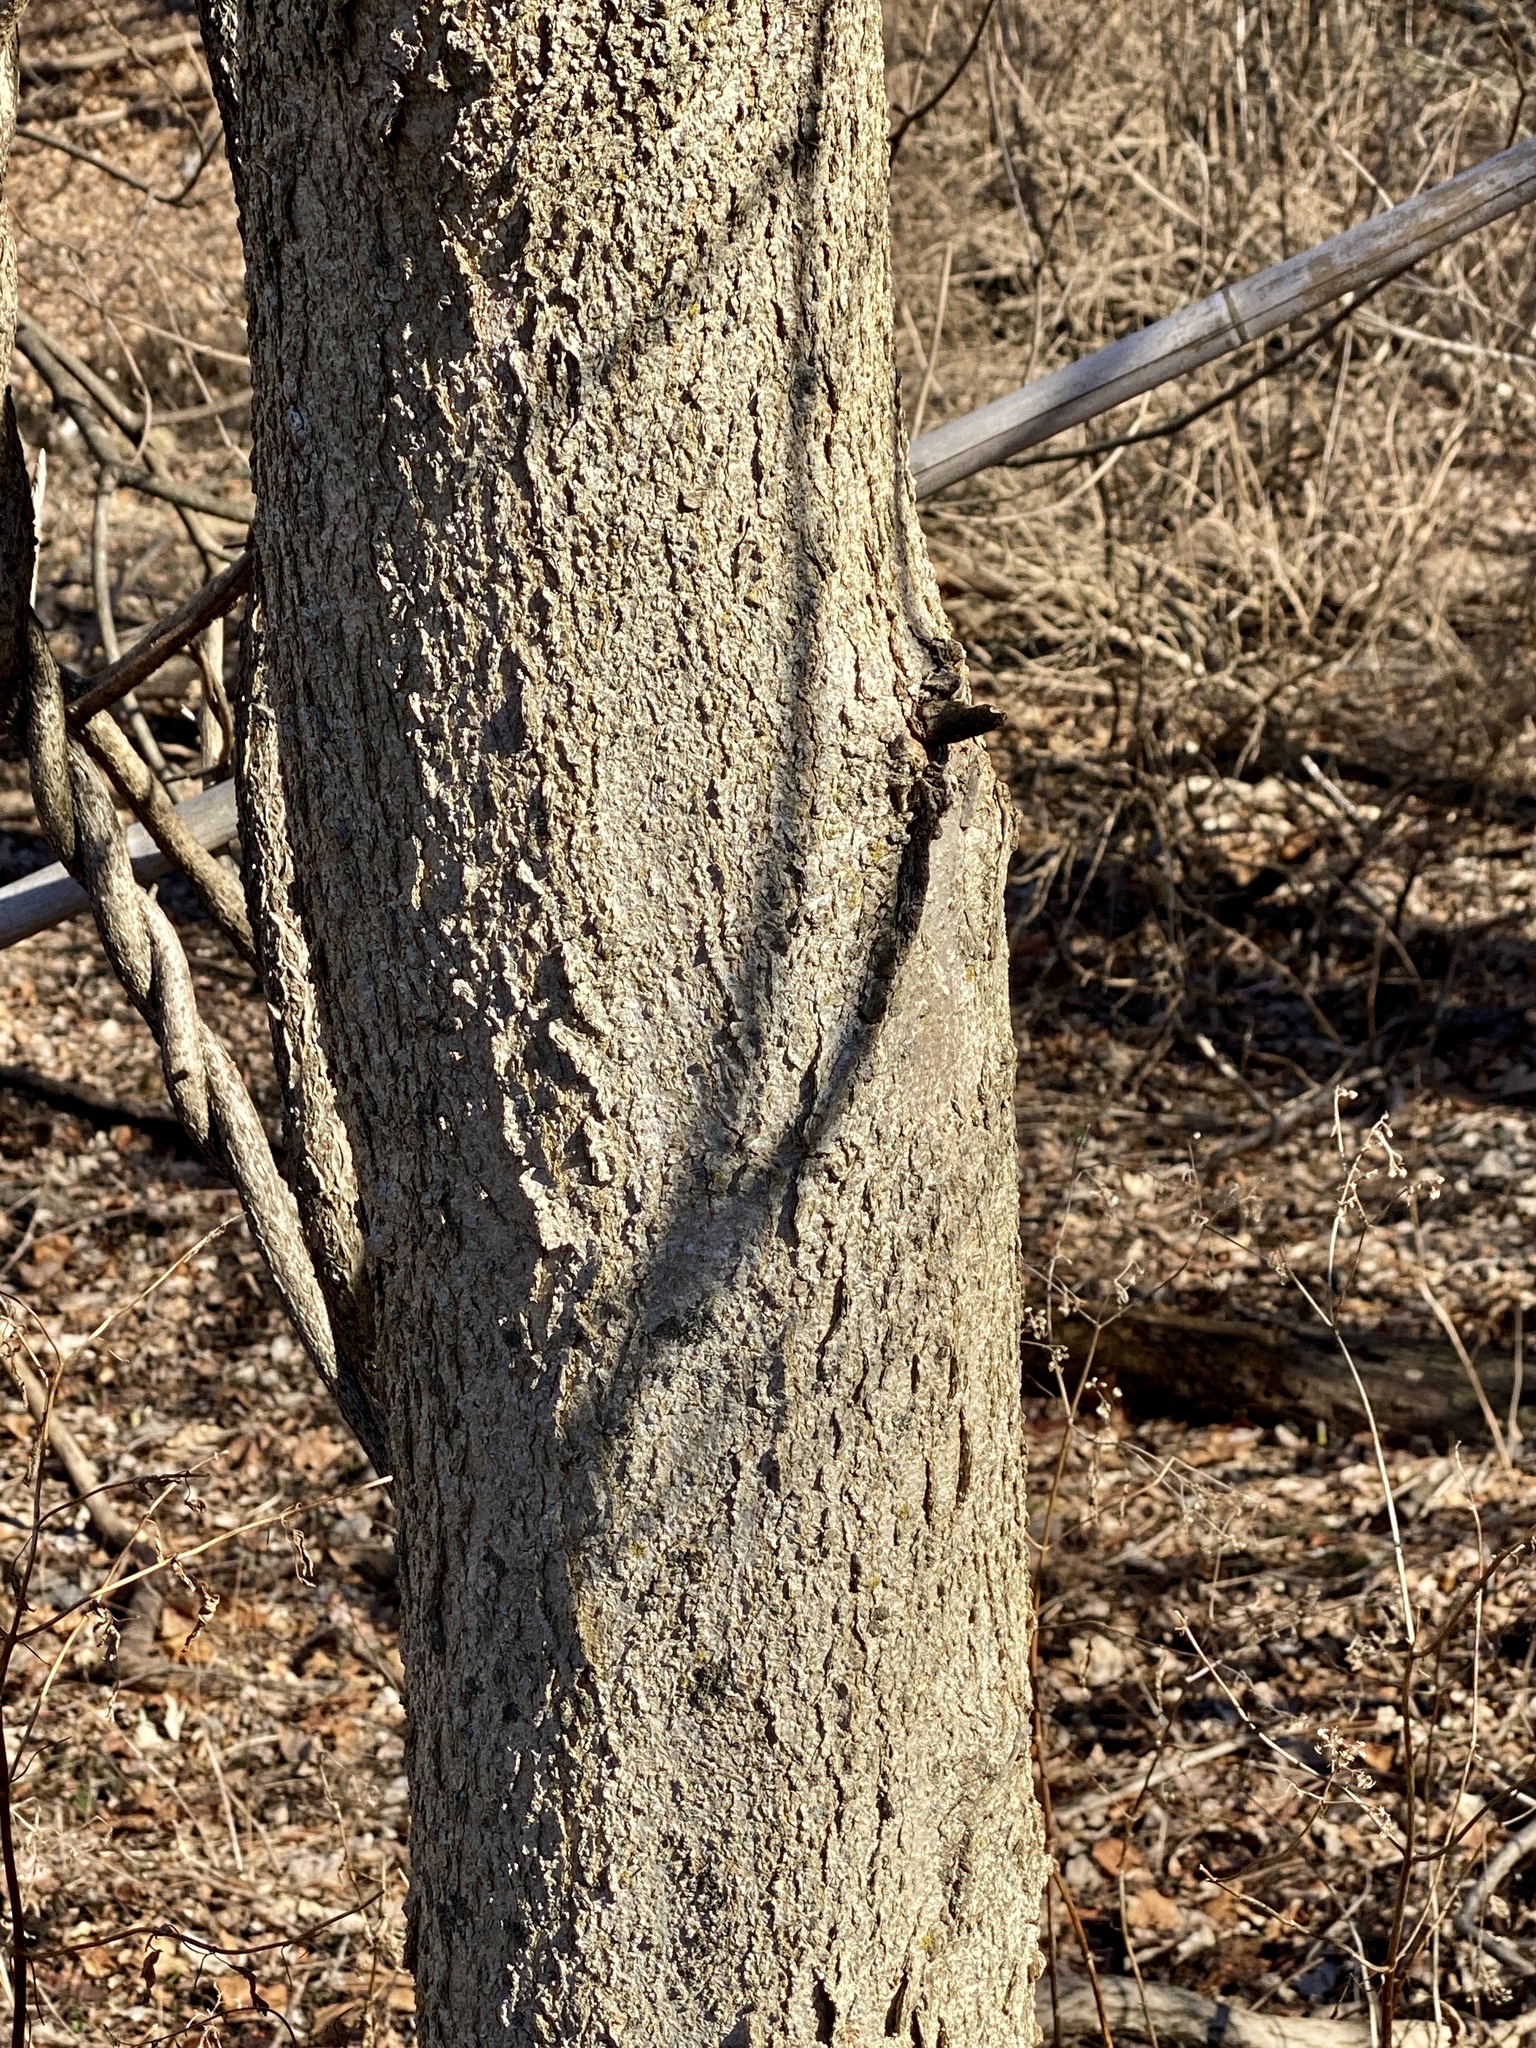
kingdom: Plantae
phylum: Tracheophyta
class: Magnoliopsida
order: Sapindales
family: Sapindaceae
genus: Aesculus
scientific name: Aesculus flava
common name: Yellow buckeye
